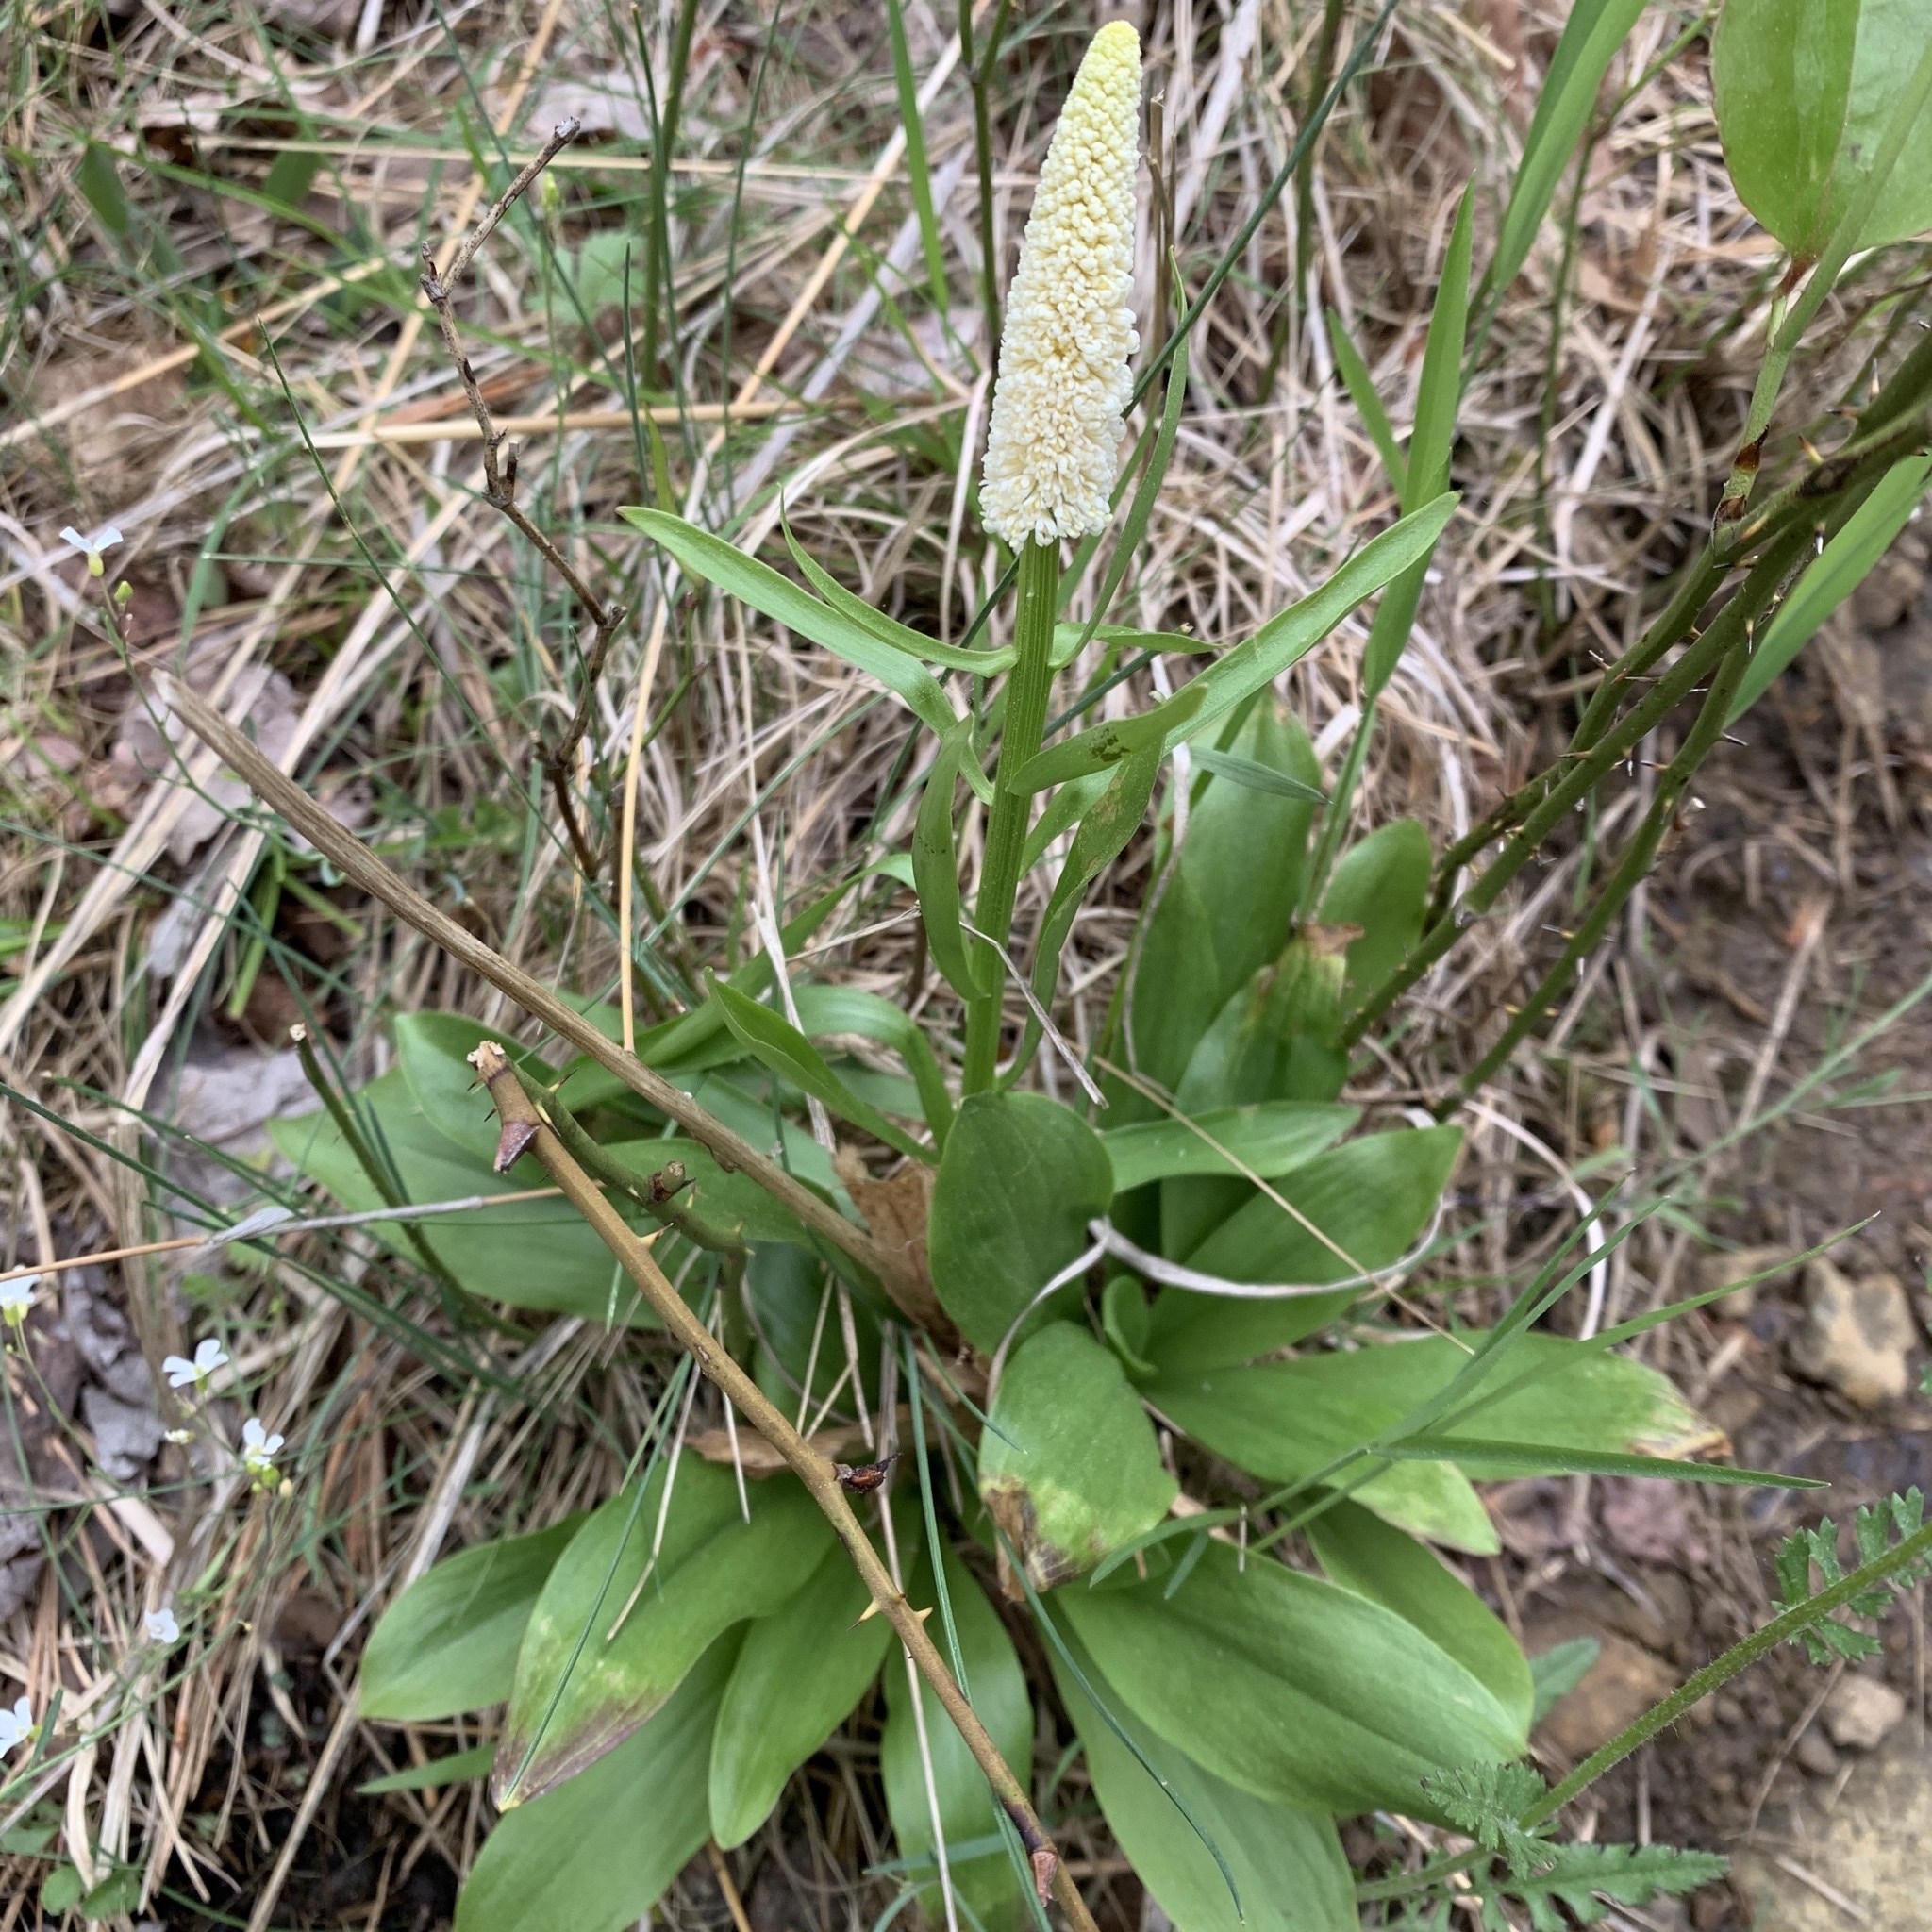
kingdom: Plantae
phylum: Tracheophyta
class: Liliopsida
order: Liliales
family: Melanthiaceae
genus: Chamaelirium
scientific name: Chamaelirium luteum
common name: Fairy-wand
